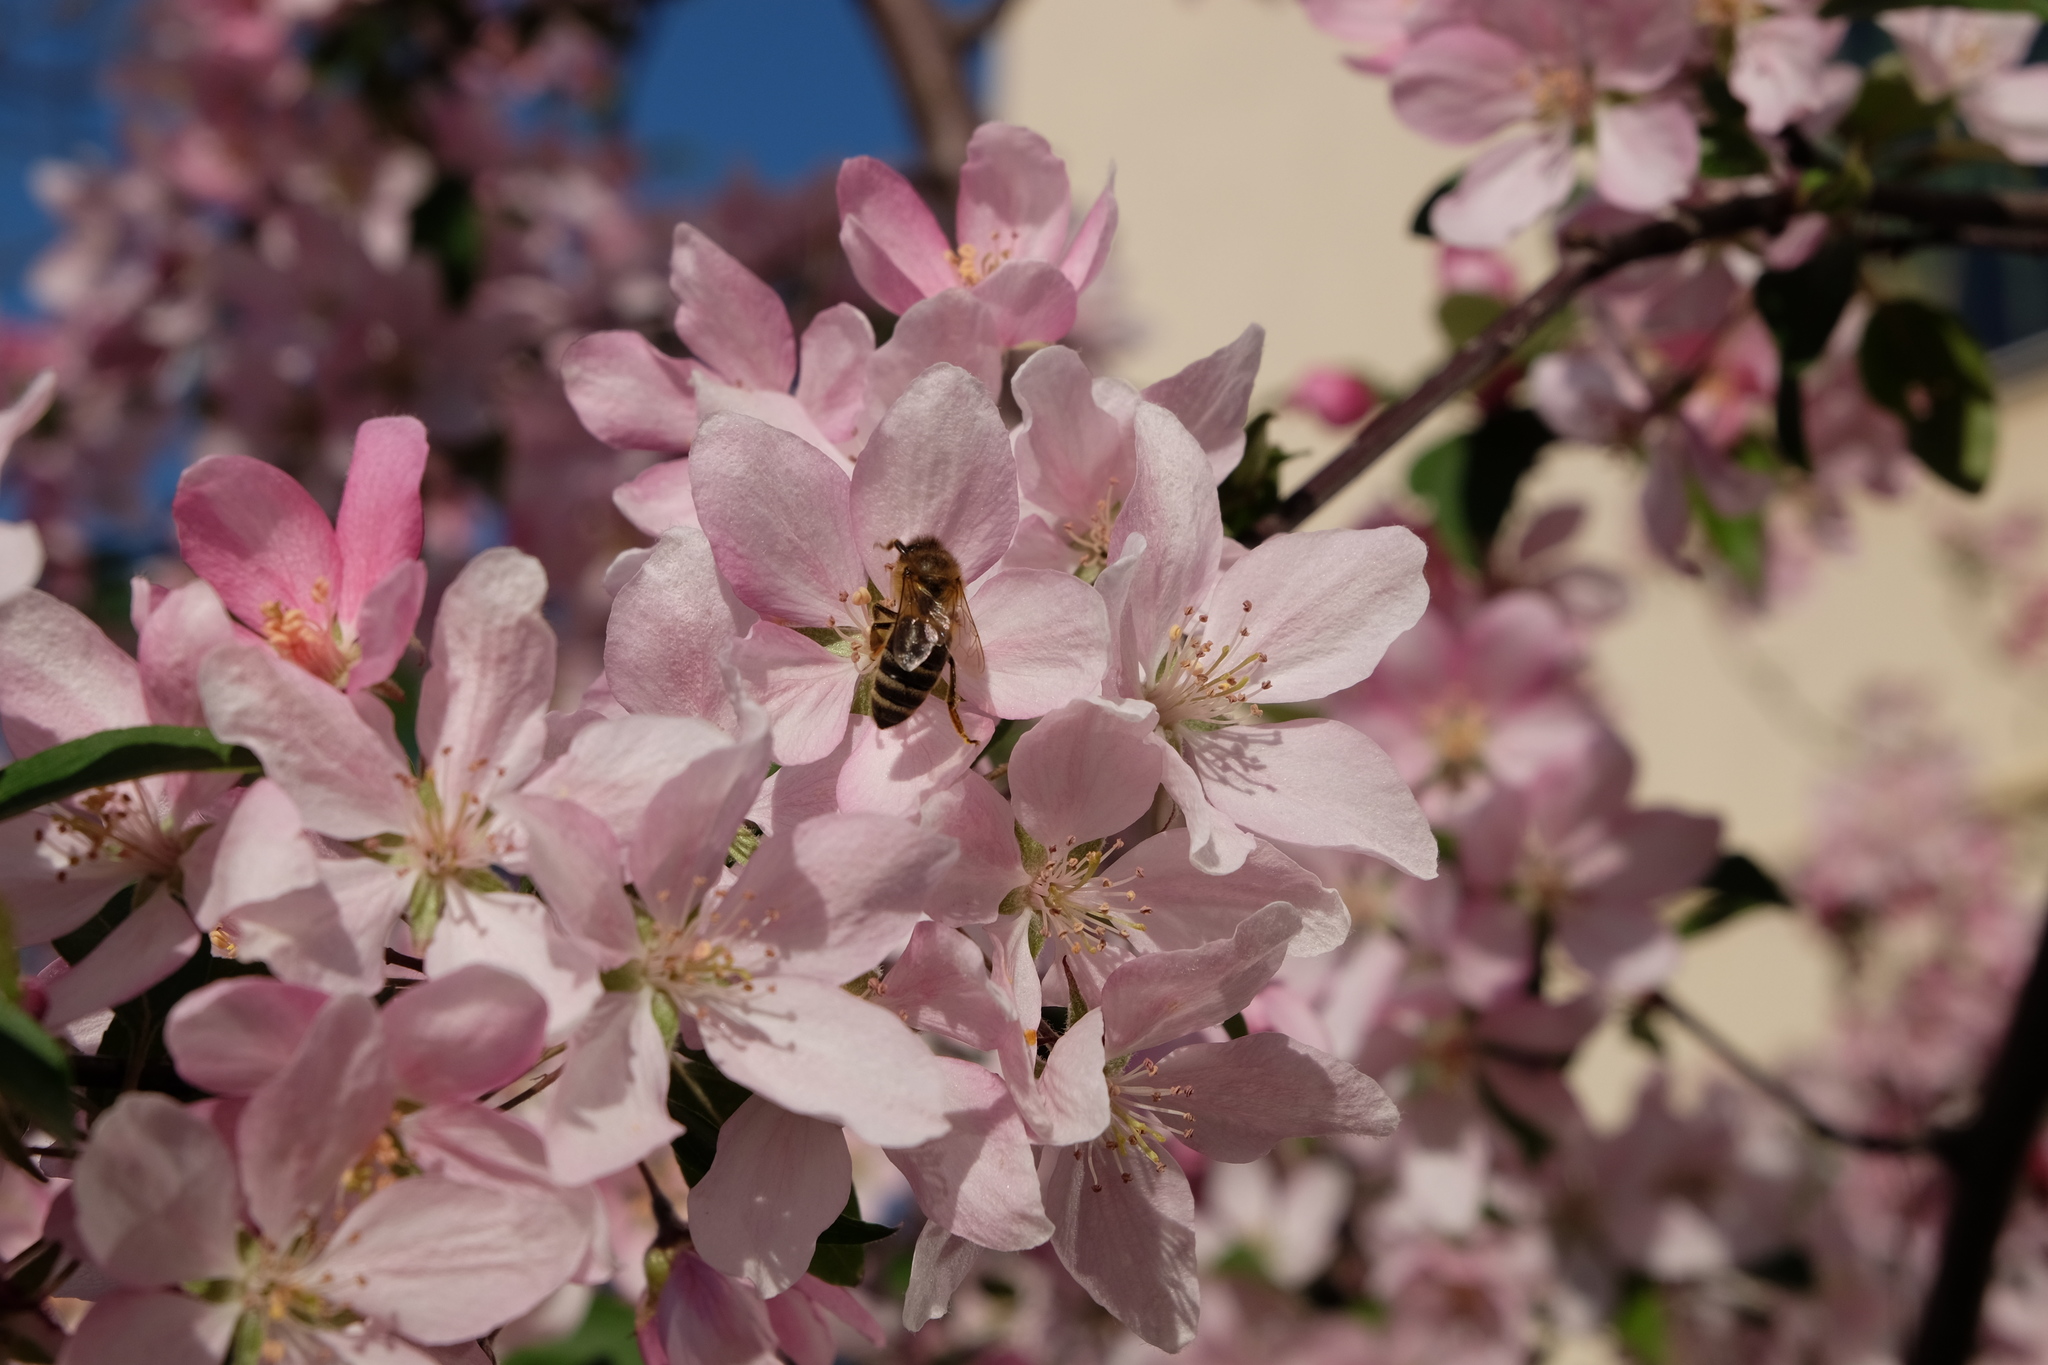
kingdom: Animalia
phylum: Arthropoda
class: Insecta
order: Hymenoptera
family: Apidae
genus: Apis
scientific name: Apis mellifera
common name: Honey bee
